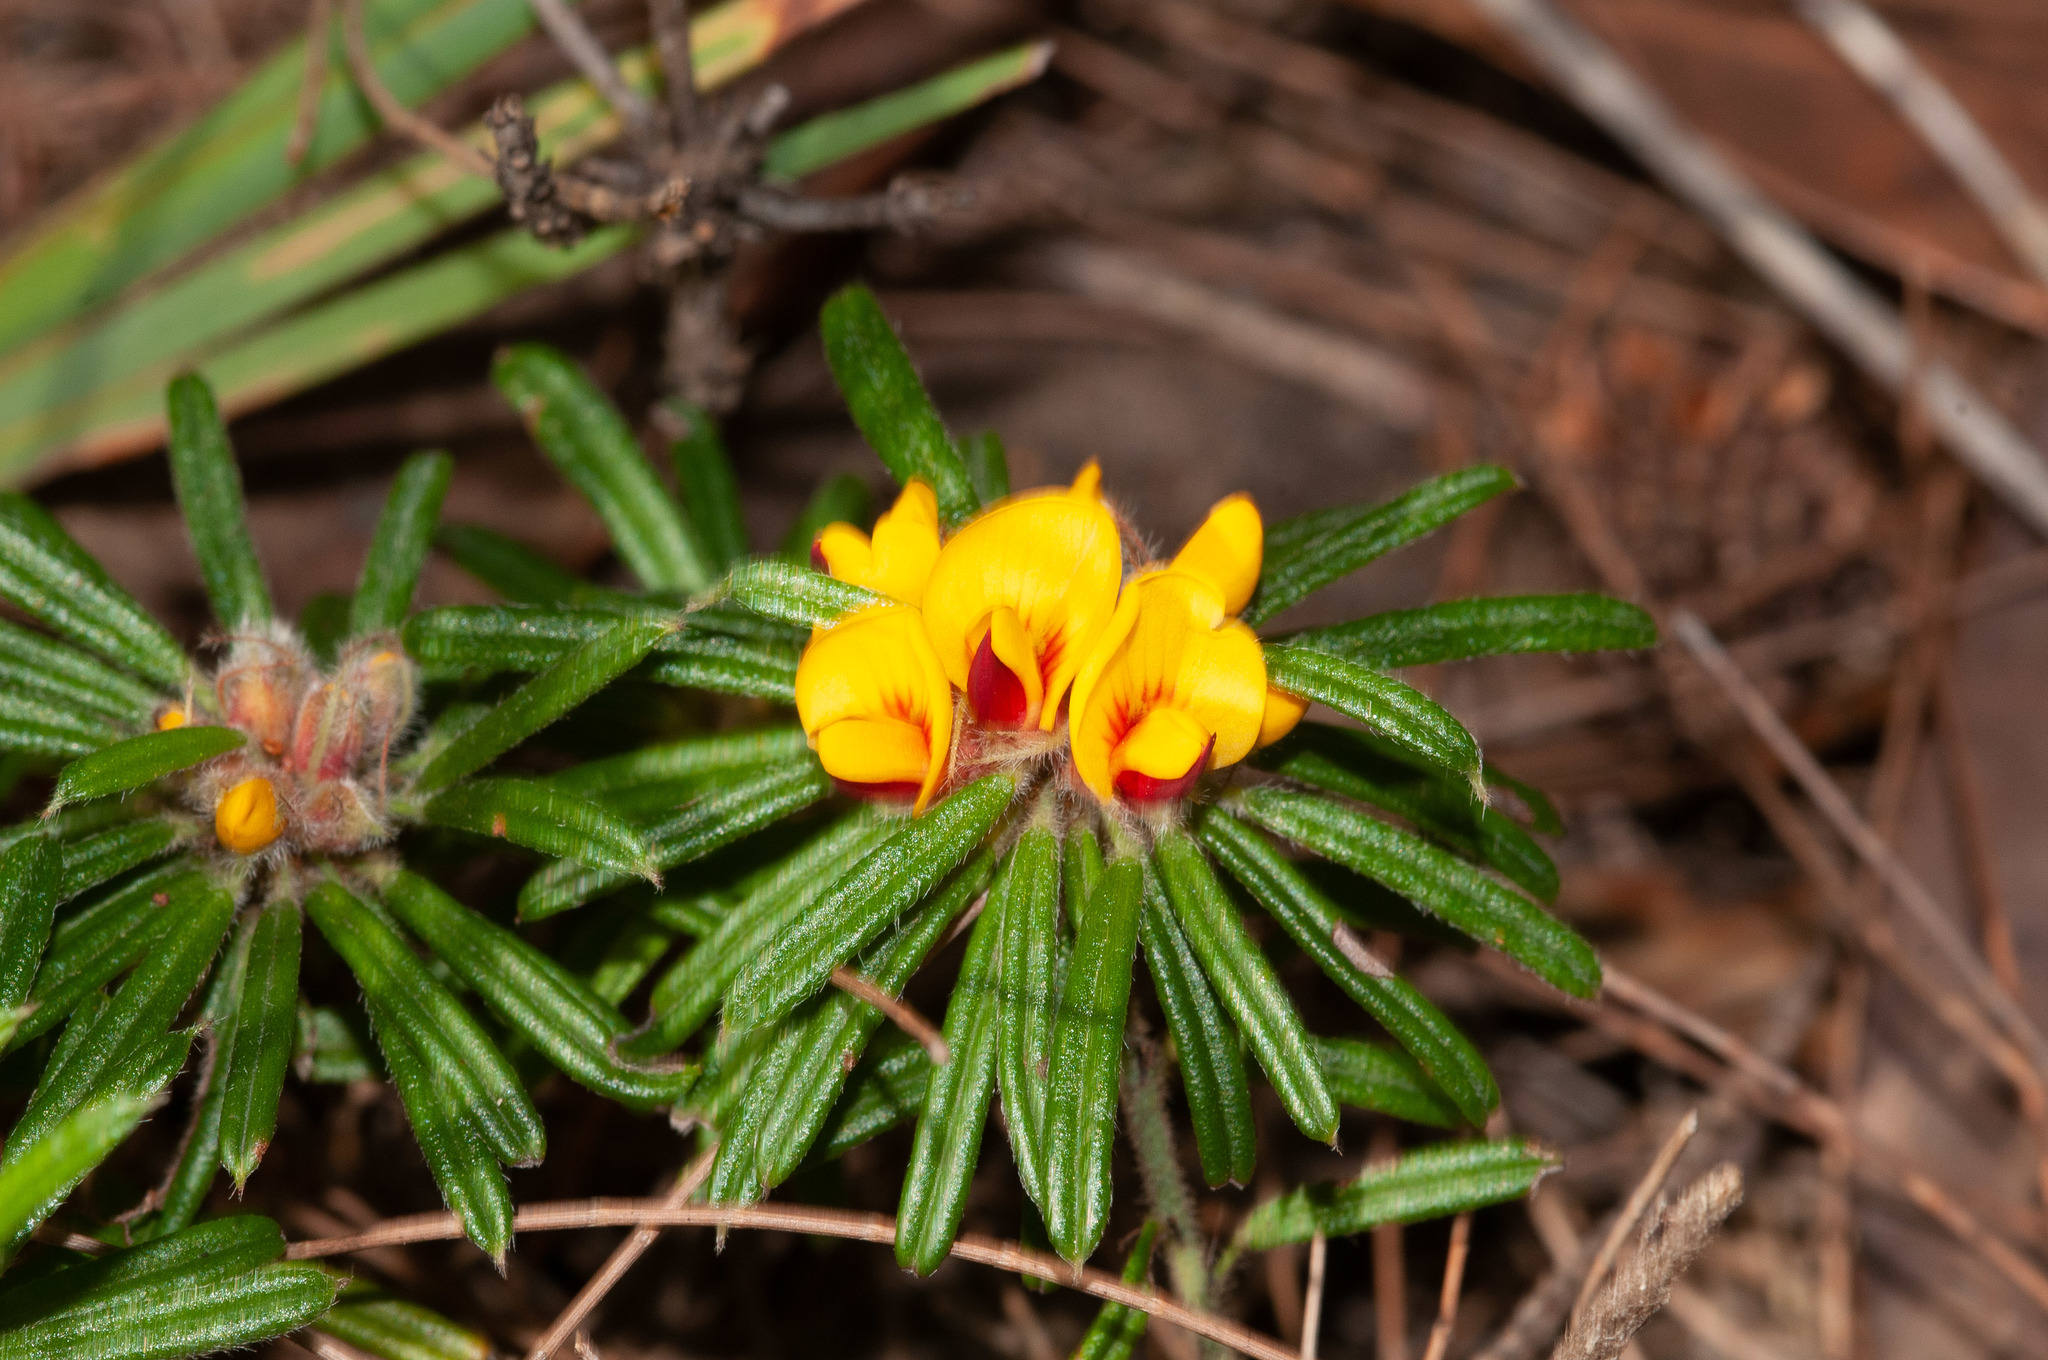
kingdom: Plantae
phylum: Tracheophyta
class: Magnoliopsida
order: Fabales
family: Fabaceae
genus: Pultenaea
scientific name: Pultenaea petiolaris
